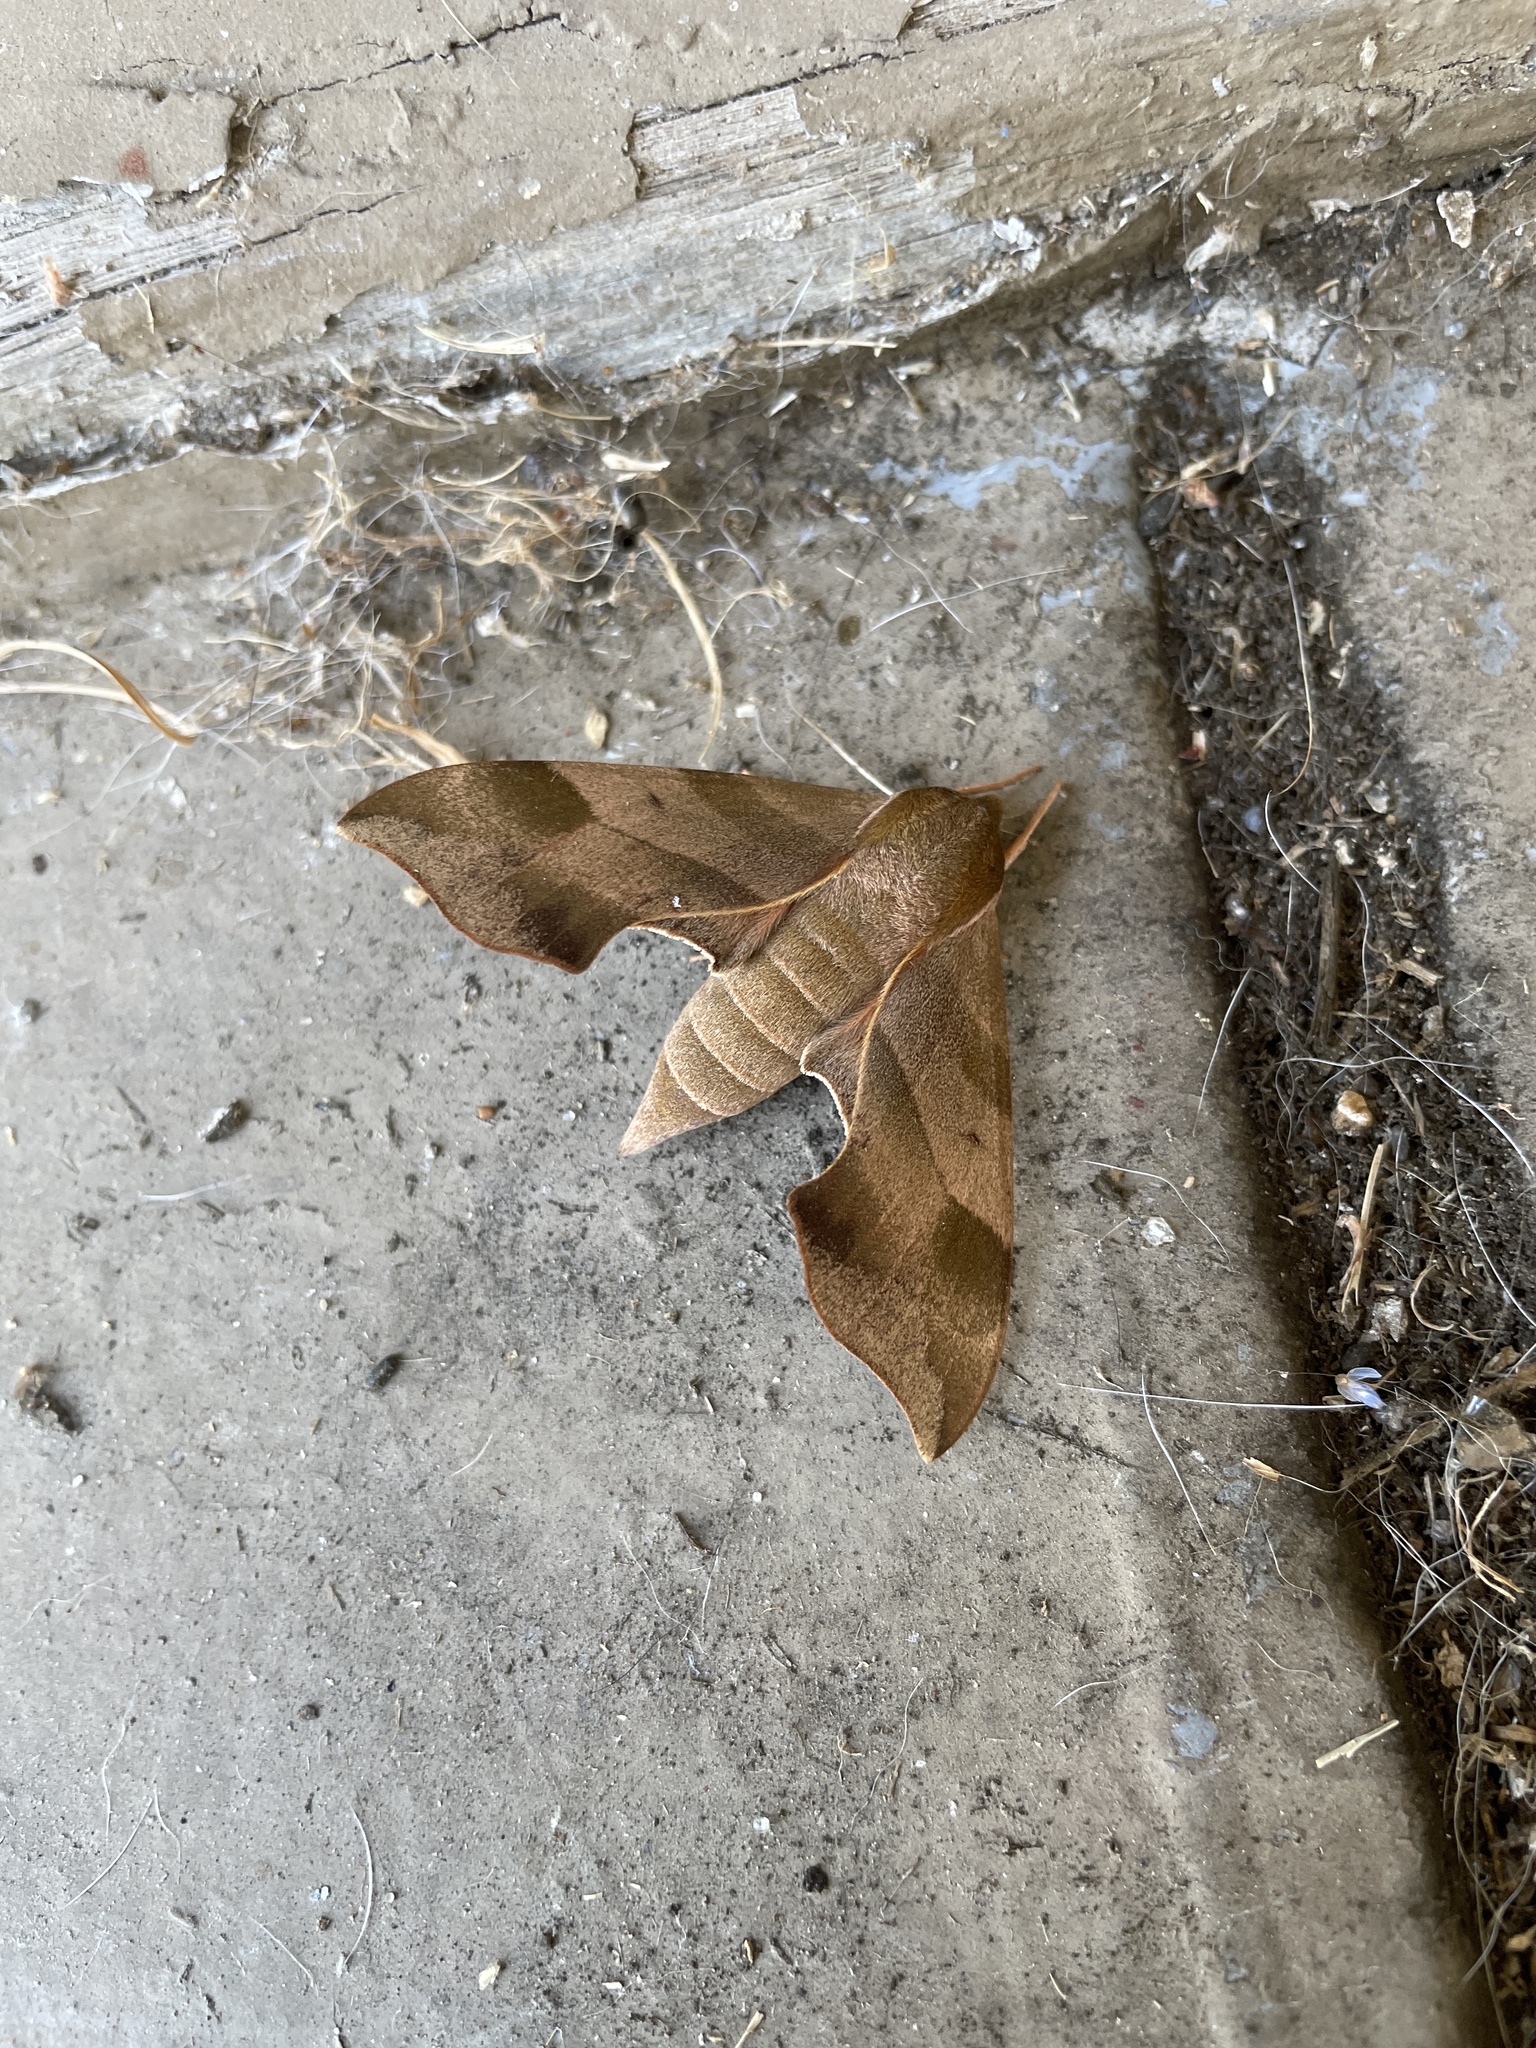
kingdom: Animalia
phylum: Arthropoda
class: Insecta
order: Lepidoptera
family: Sphingidae
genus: Darapsa
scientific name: Darapsa myron
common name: Hog sphinx
